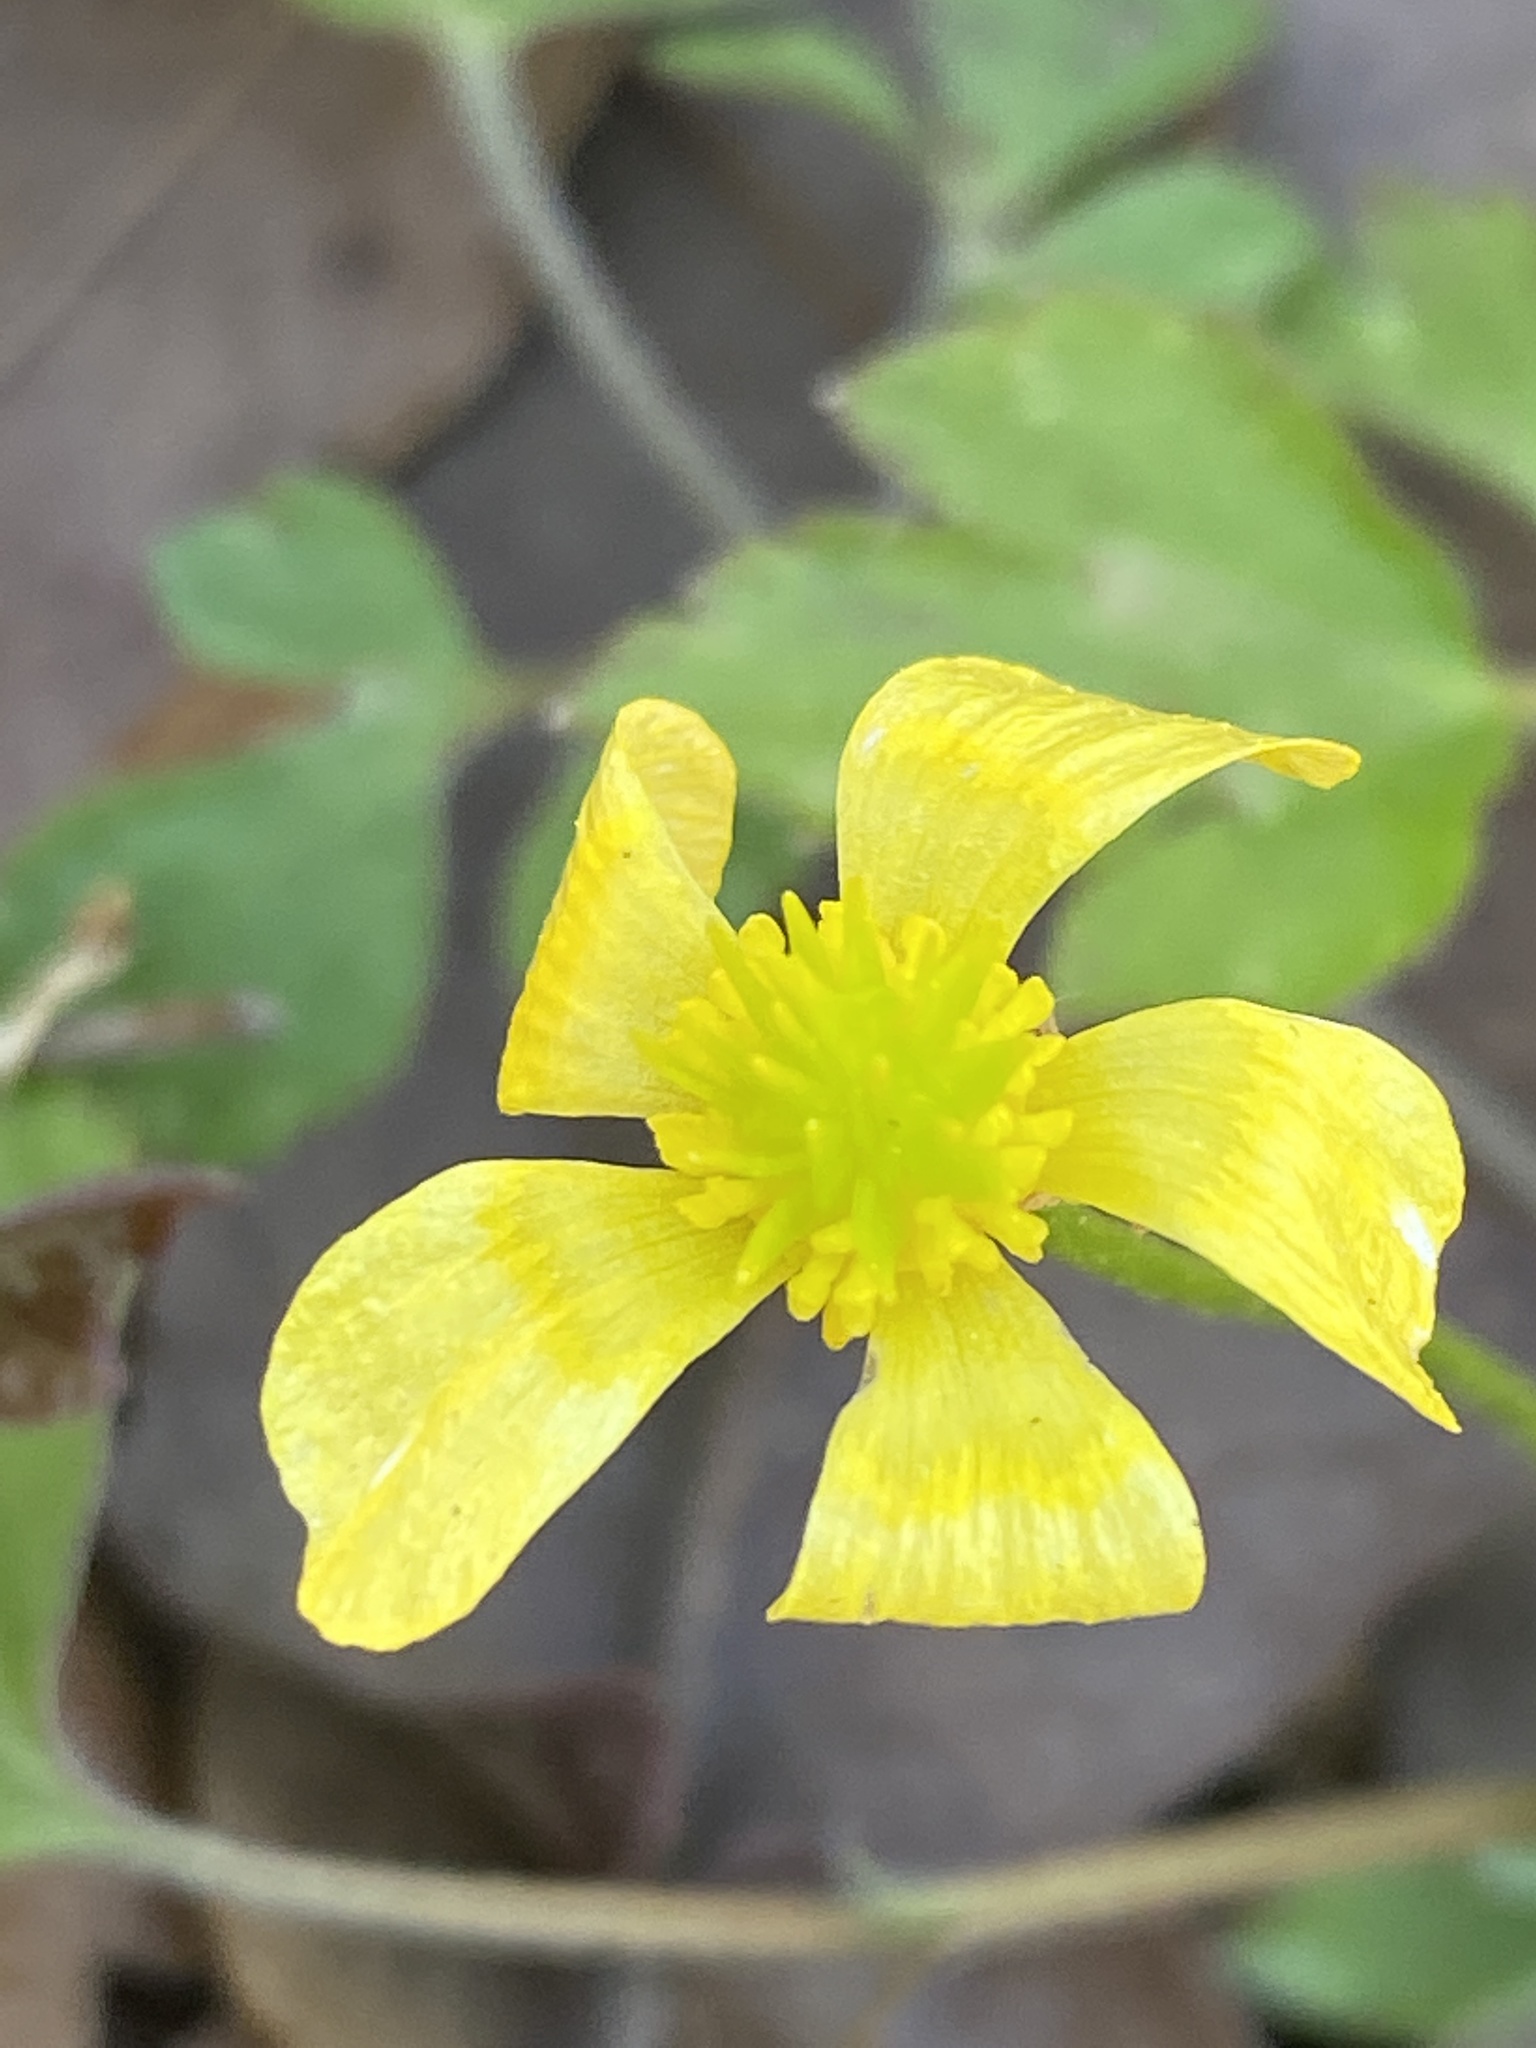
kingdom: Plantae
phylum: Tracheophyta
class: Magnoliopsida
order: Ranunculales
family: Ranunculaceae
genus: Ranunculus
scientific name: Ranunculus hispidus
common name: Bristly buttercup
